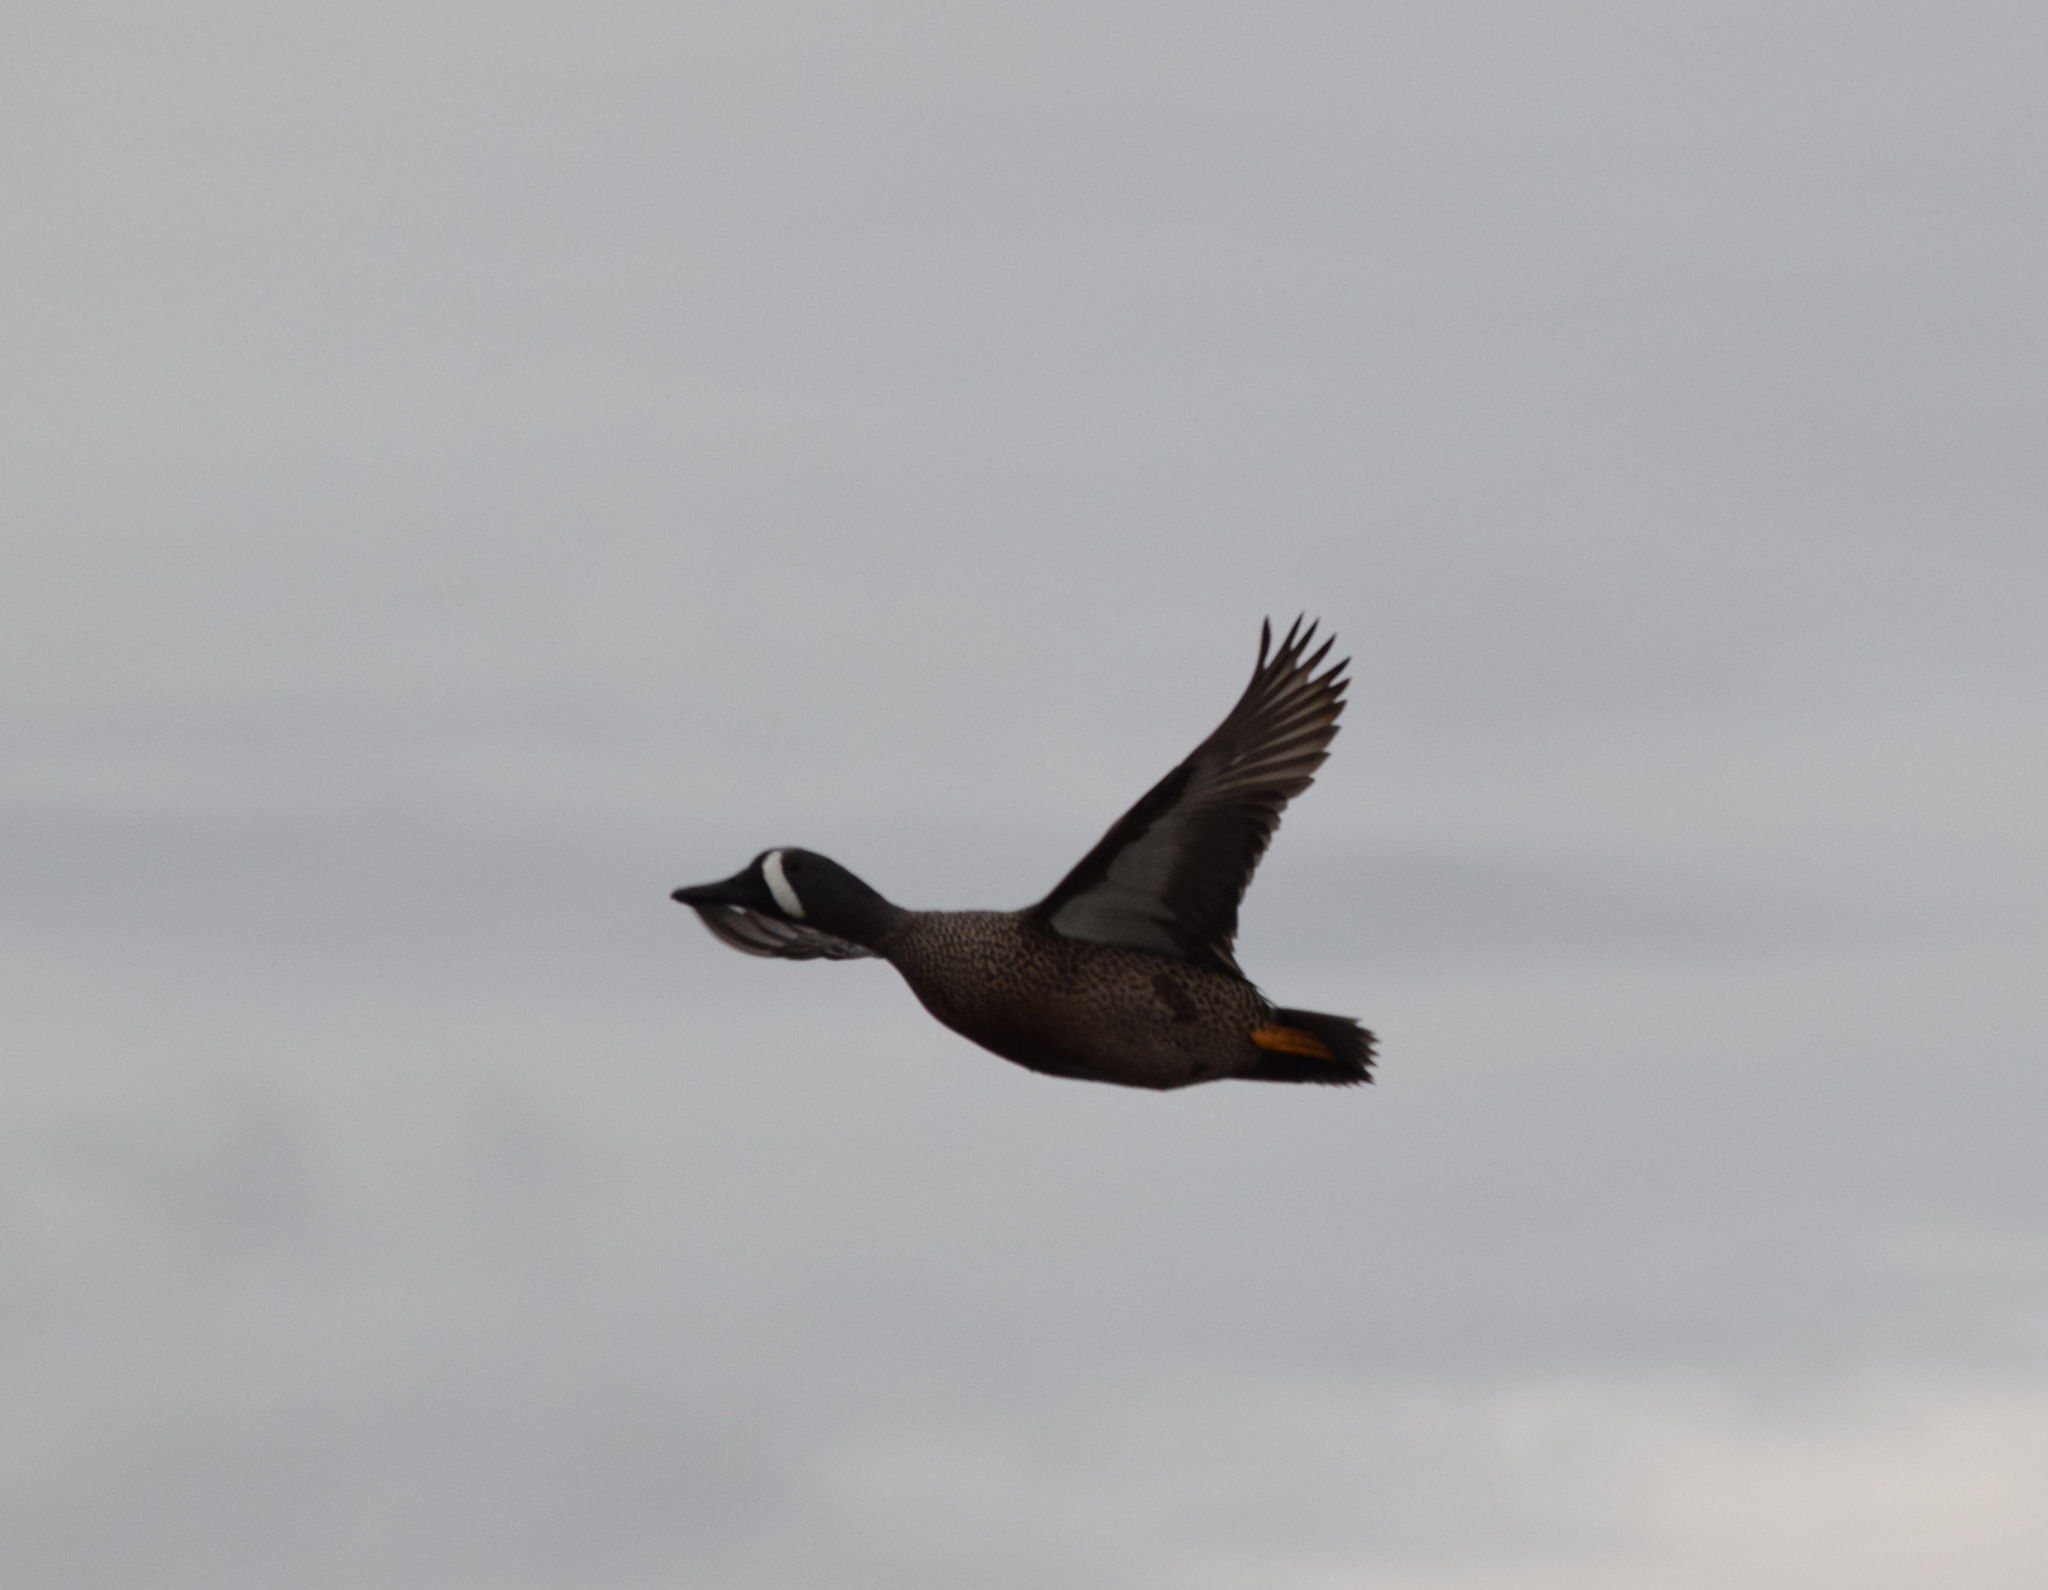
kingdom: Animalia
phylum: Chordata
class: Aves
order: Anseriformes
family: Anatidae
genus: Spatula
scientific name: Spatula discors
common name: Blue-winged teal
